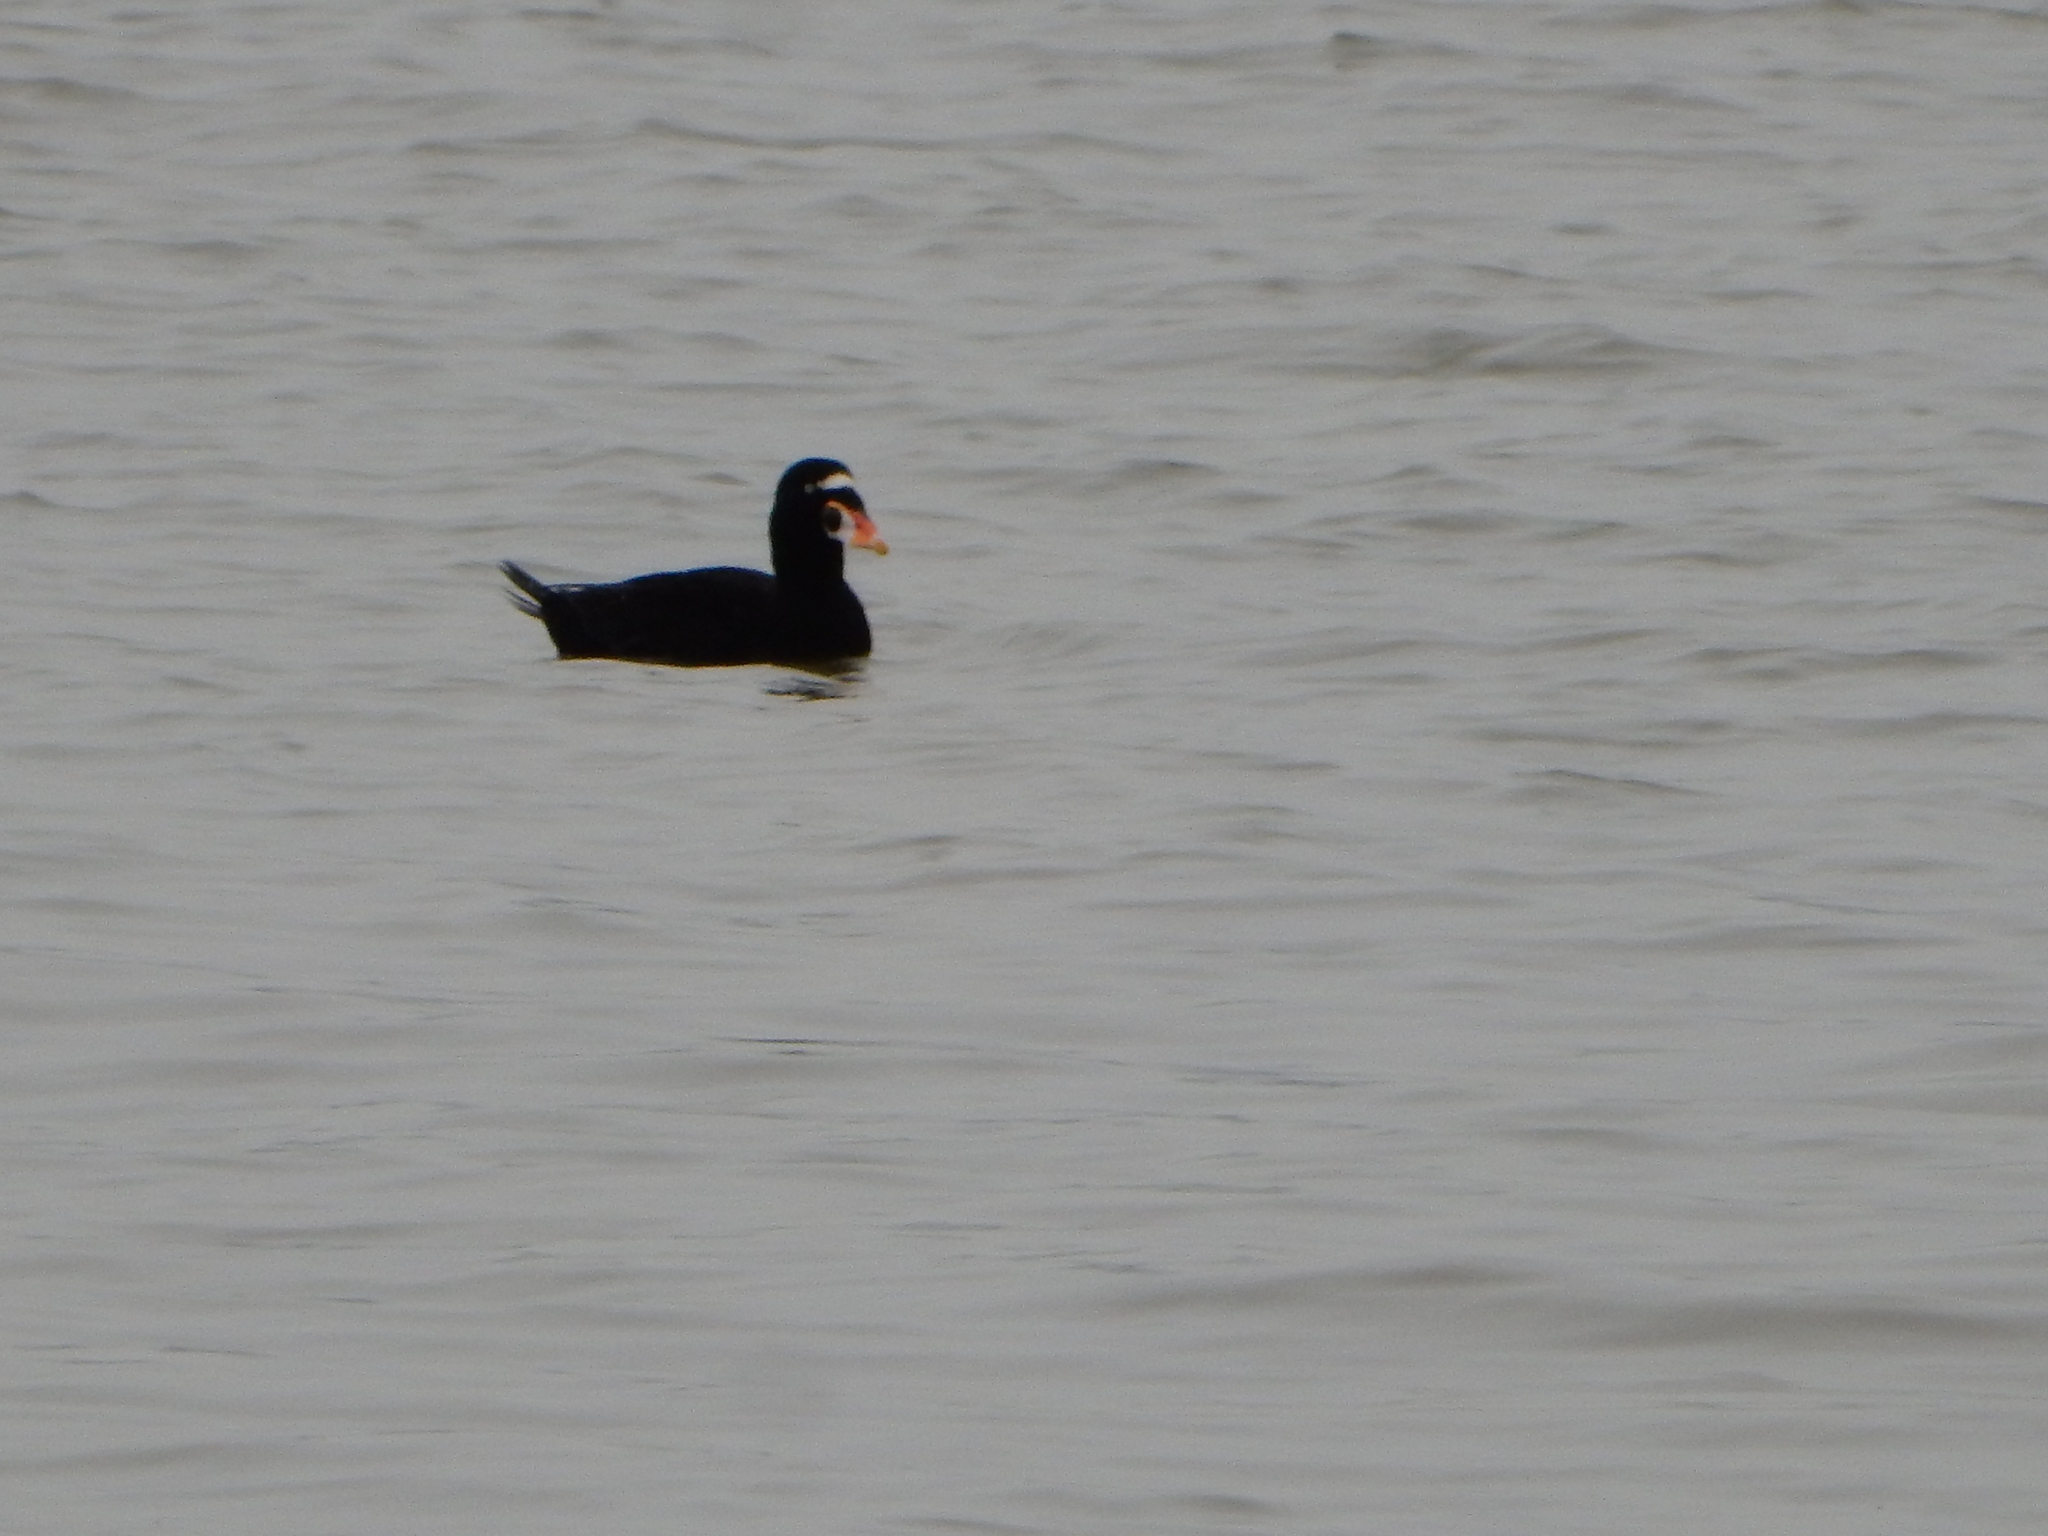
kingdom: Animalia
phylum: Chordata
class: Aves
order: Anseriformes
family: Anatidae
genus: Melanitta
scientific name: Melanitta perspicillata
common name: Surf scoter
